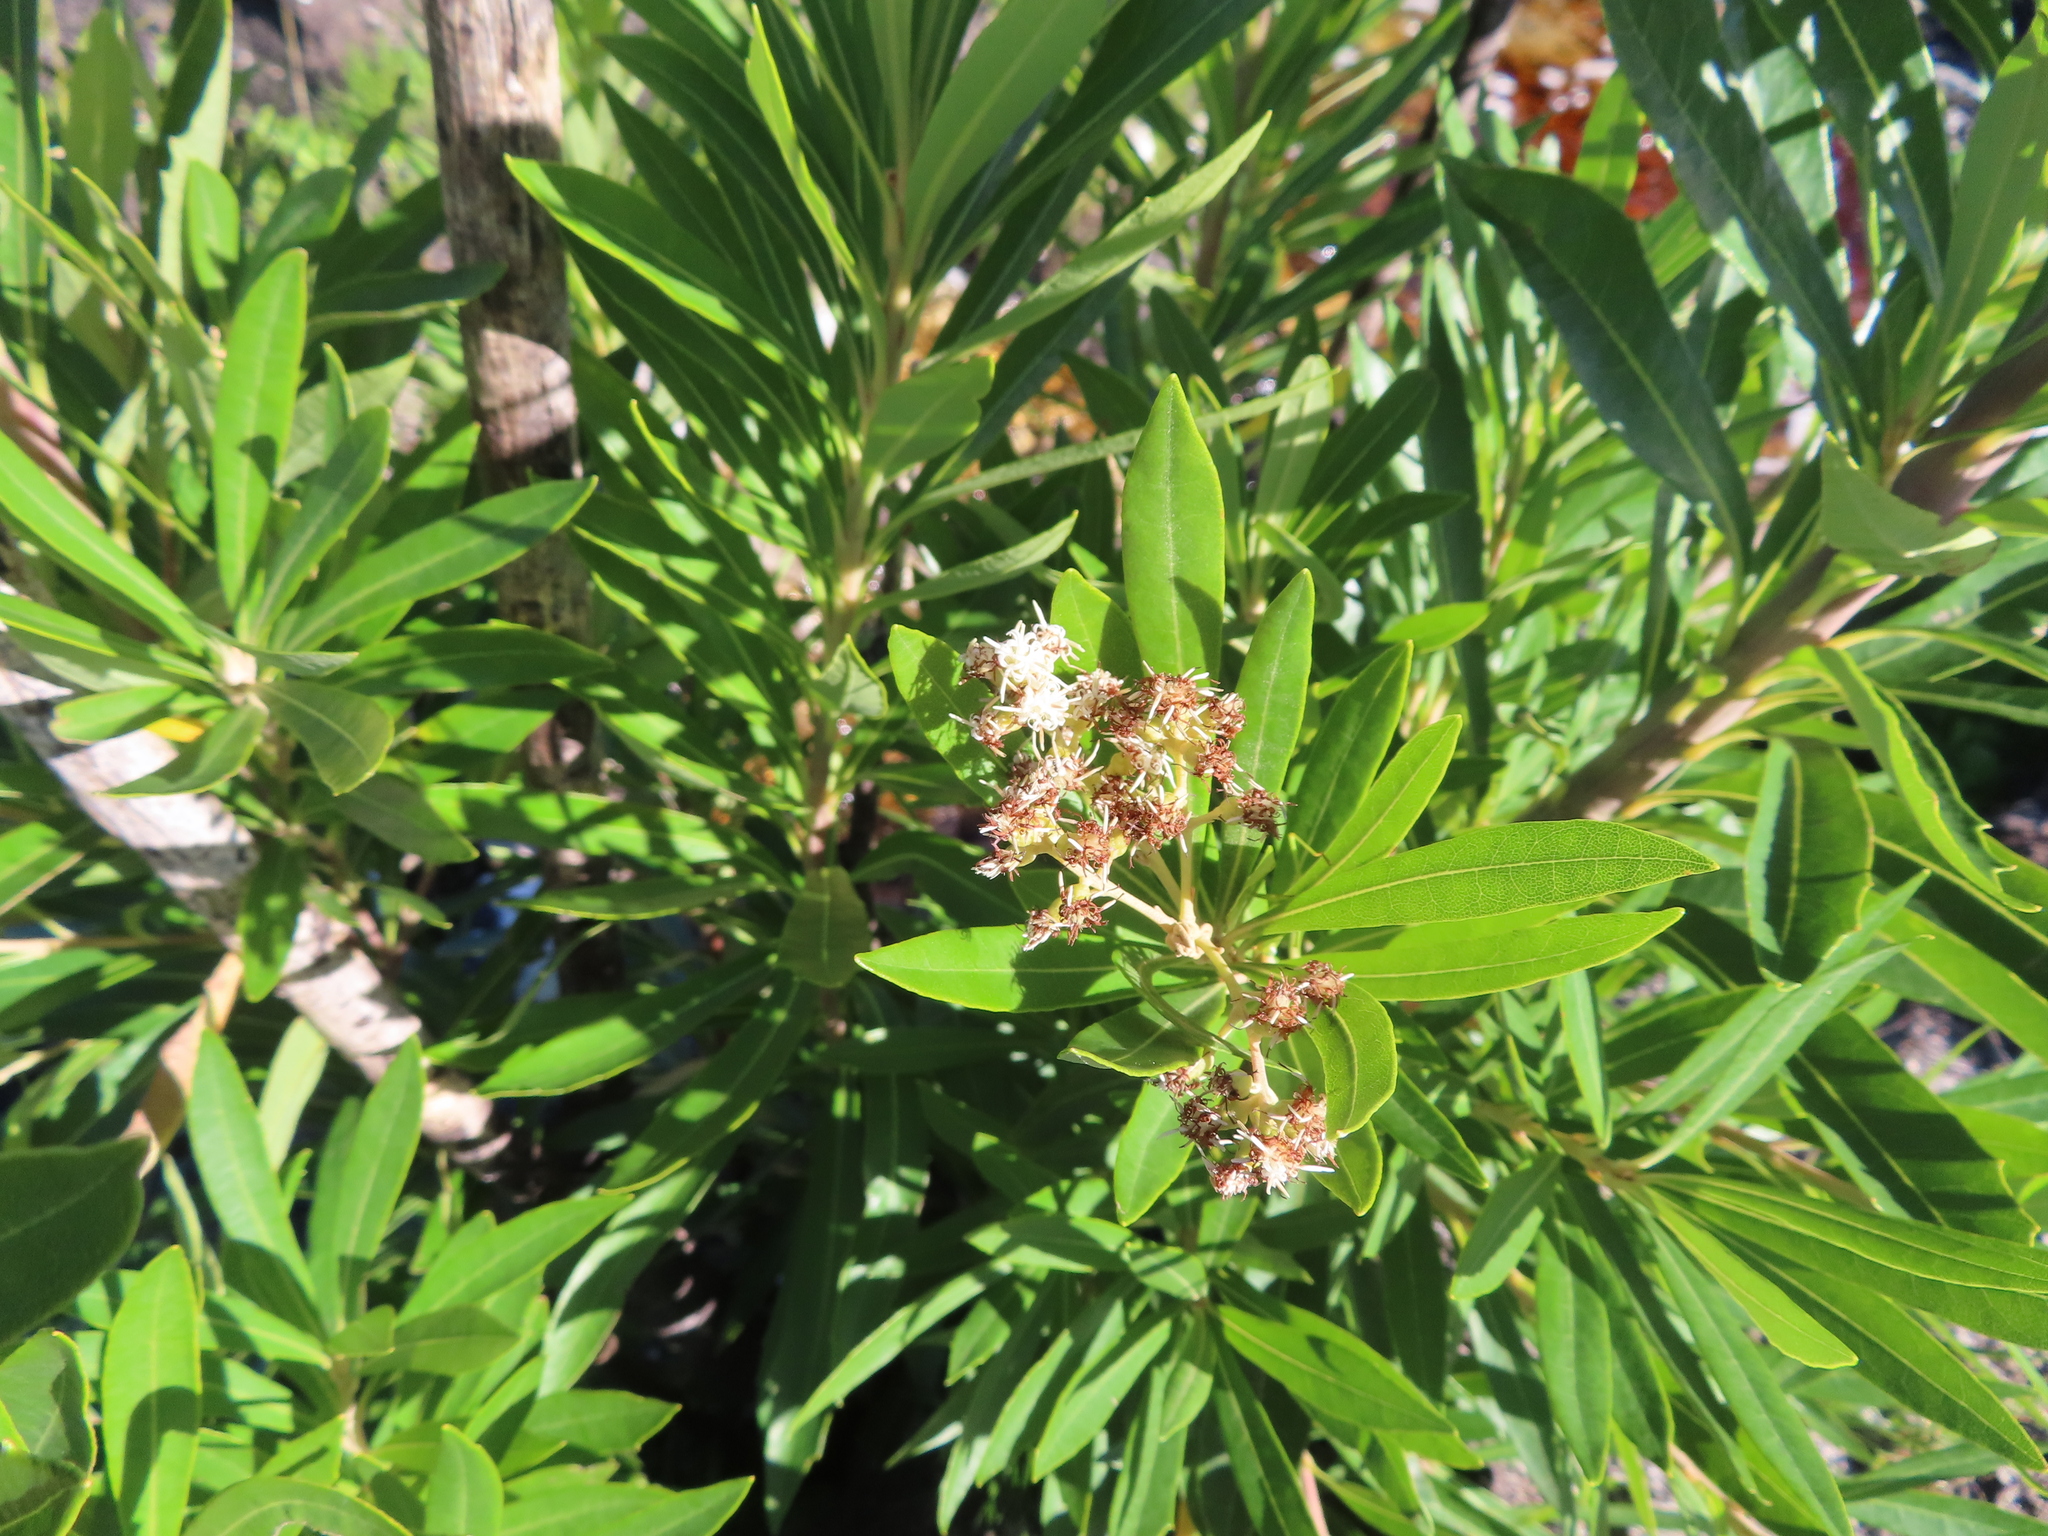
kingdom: Plantae
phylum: Tracheophyta
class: Magnoliopsida
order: Asterales
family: Asteraceae
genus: Brachylaena
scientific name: Brachylaena neriifolia
